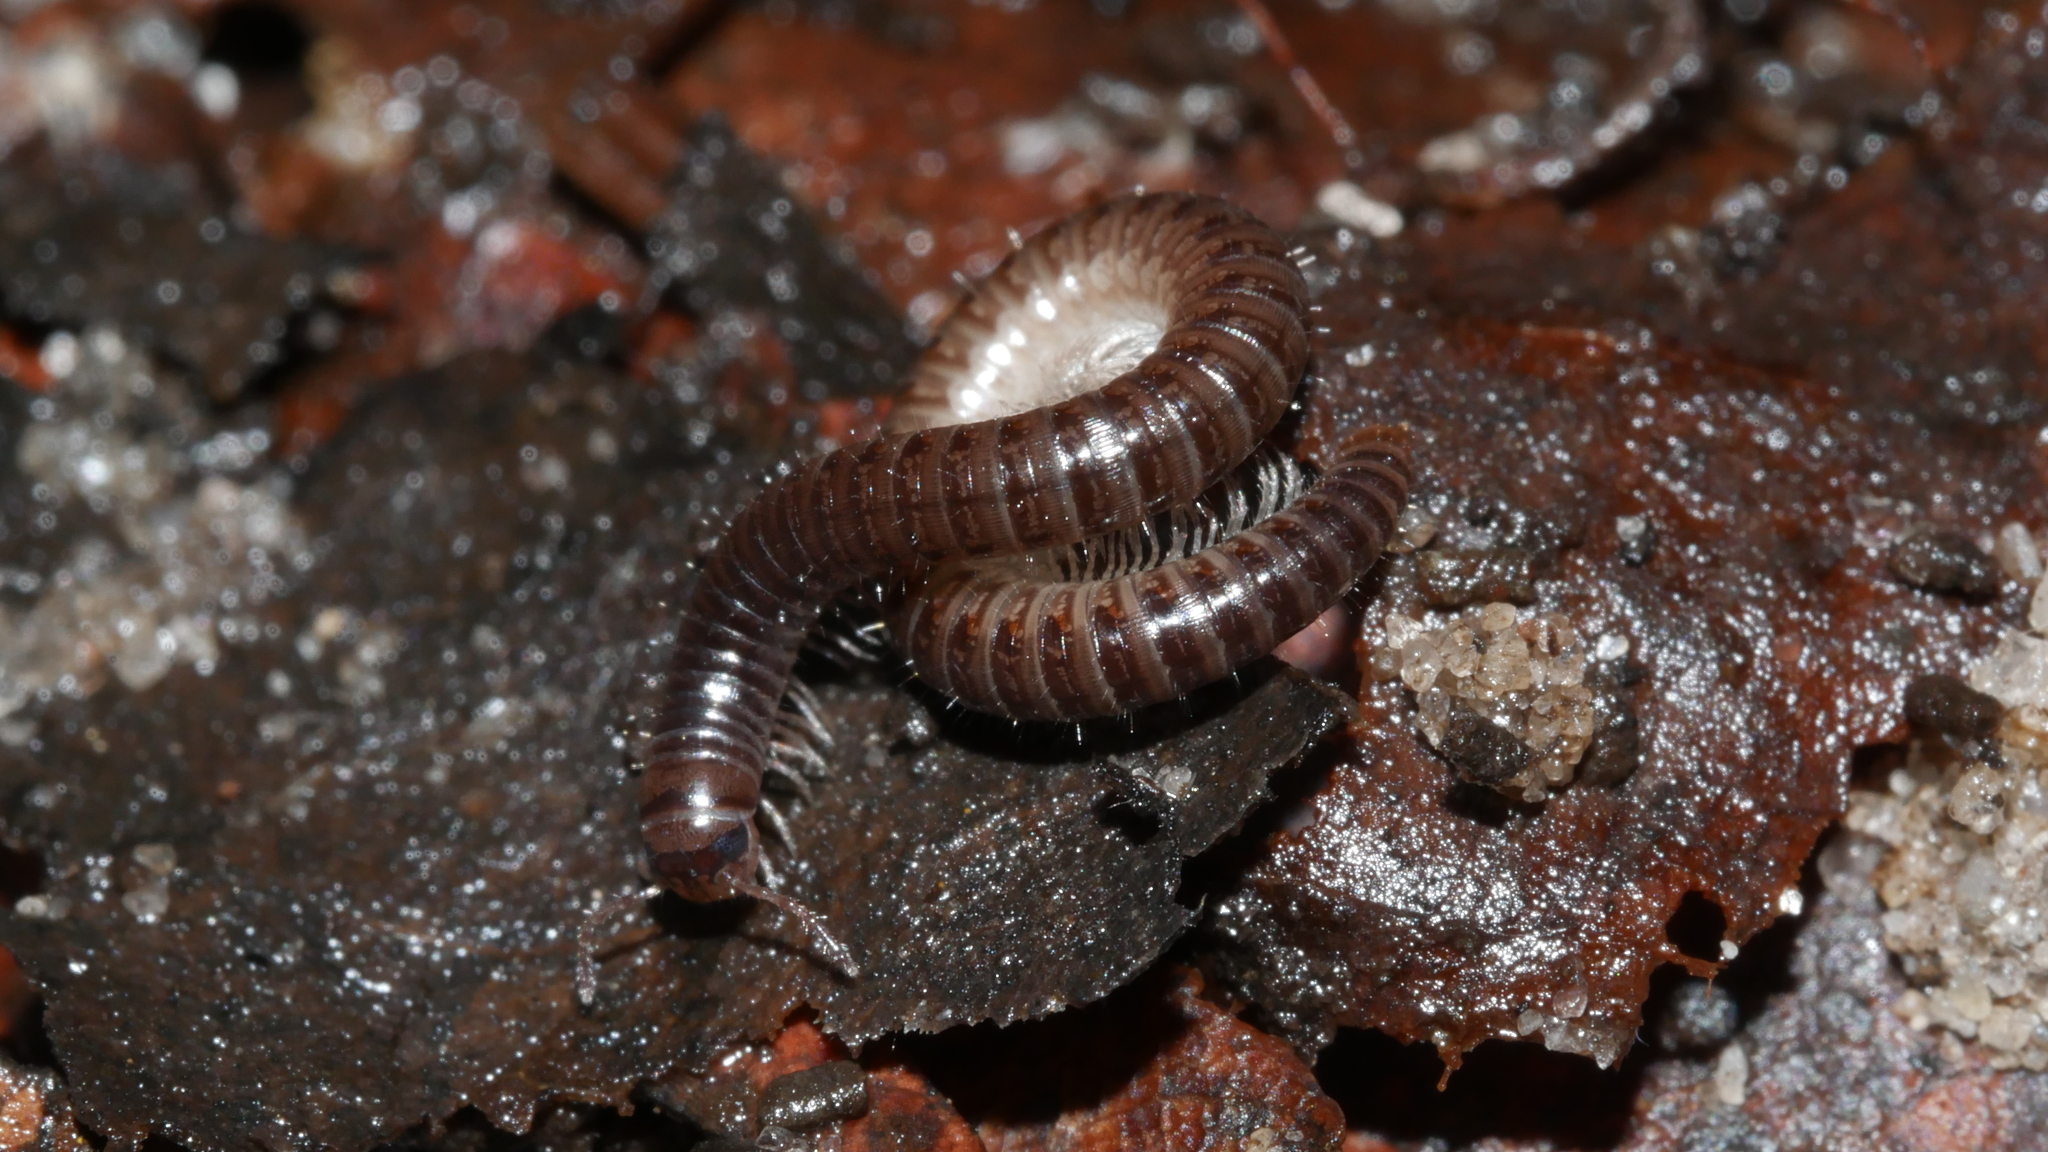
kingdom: Animalia
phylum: Arthropoda
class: Diplopoda
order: Julida
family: Julidae
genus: Ophyiulus
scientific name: Ophyiulus pilosus
